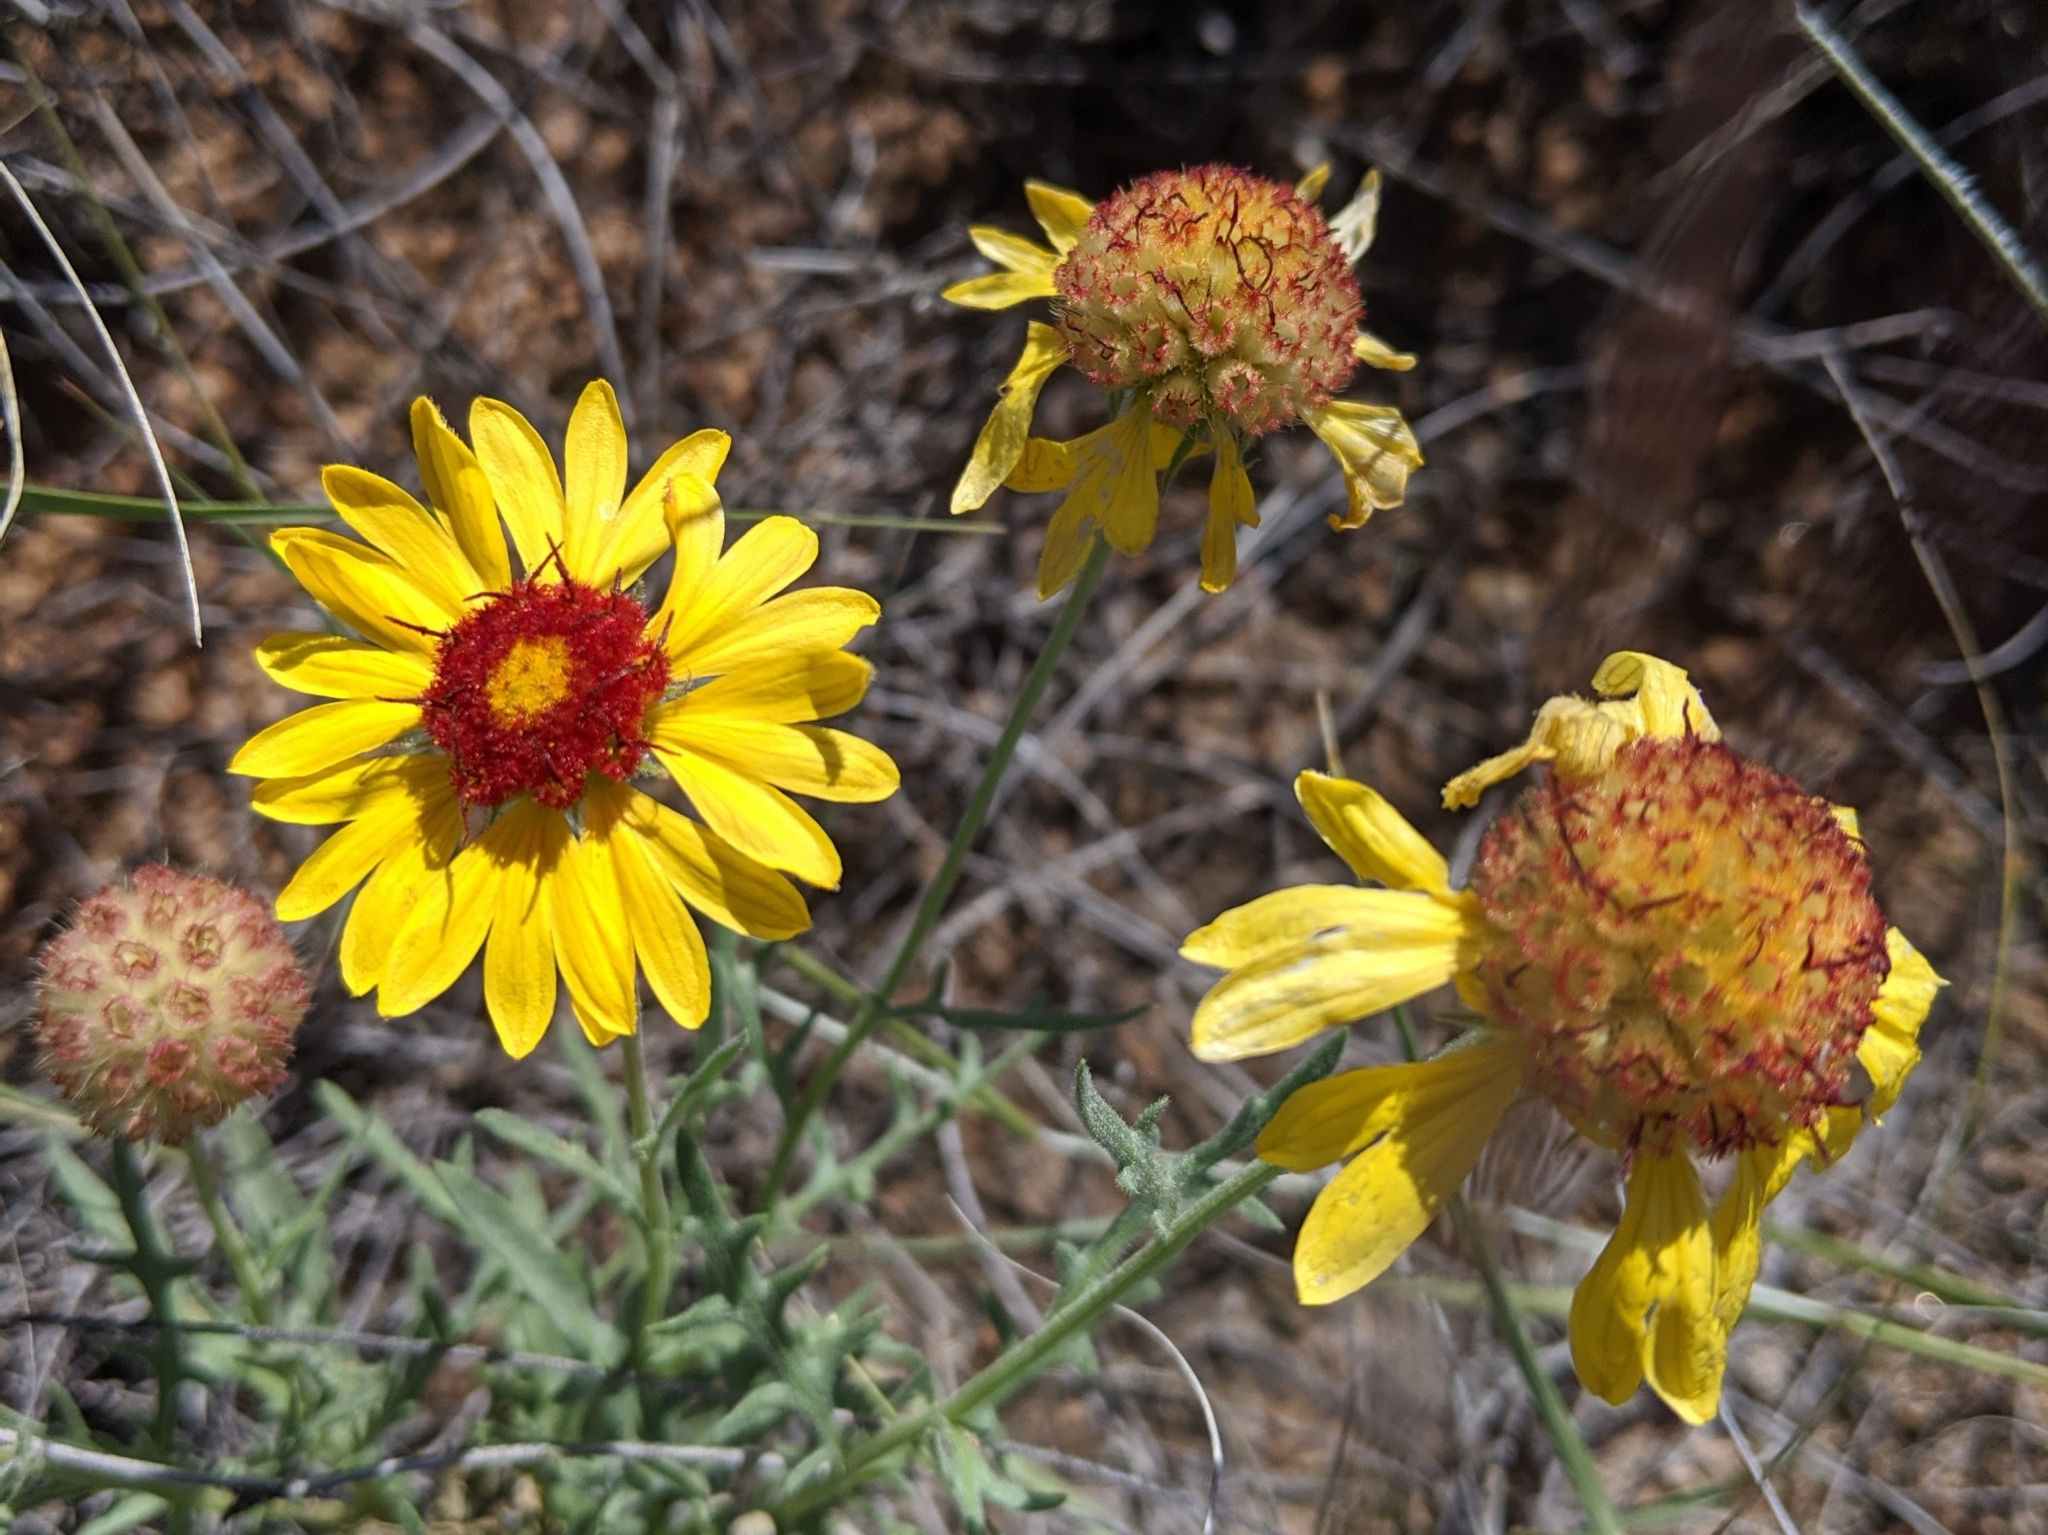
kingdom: Plantae
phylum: Tracheophyta
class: Magnoliopsida
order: Asterales
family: Asteraceae
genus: Gaillardia
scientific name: Gaillardia pinnatifida
